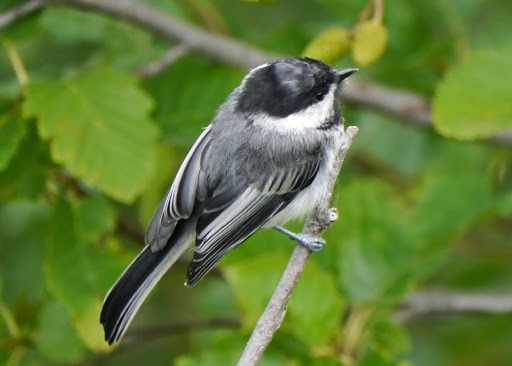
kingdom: Animalia
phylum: Chordata
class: Aves
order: Passeriformes
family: Paridae
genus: Poecile
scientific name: Poecile atricapillus
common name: Black-capped chickadee
